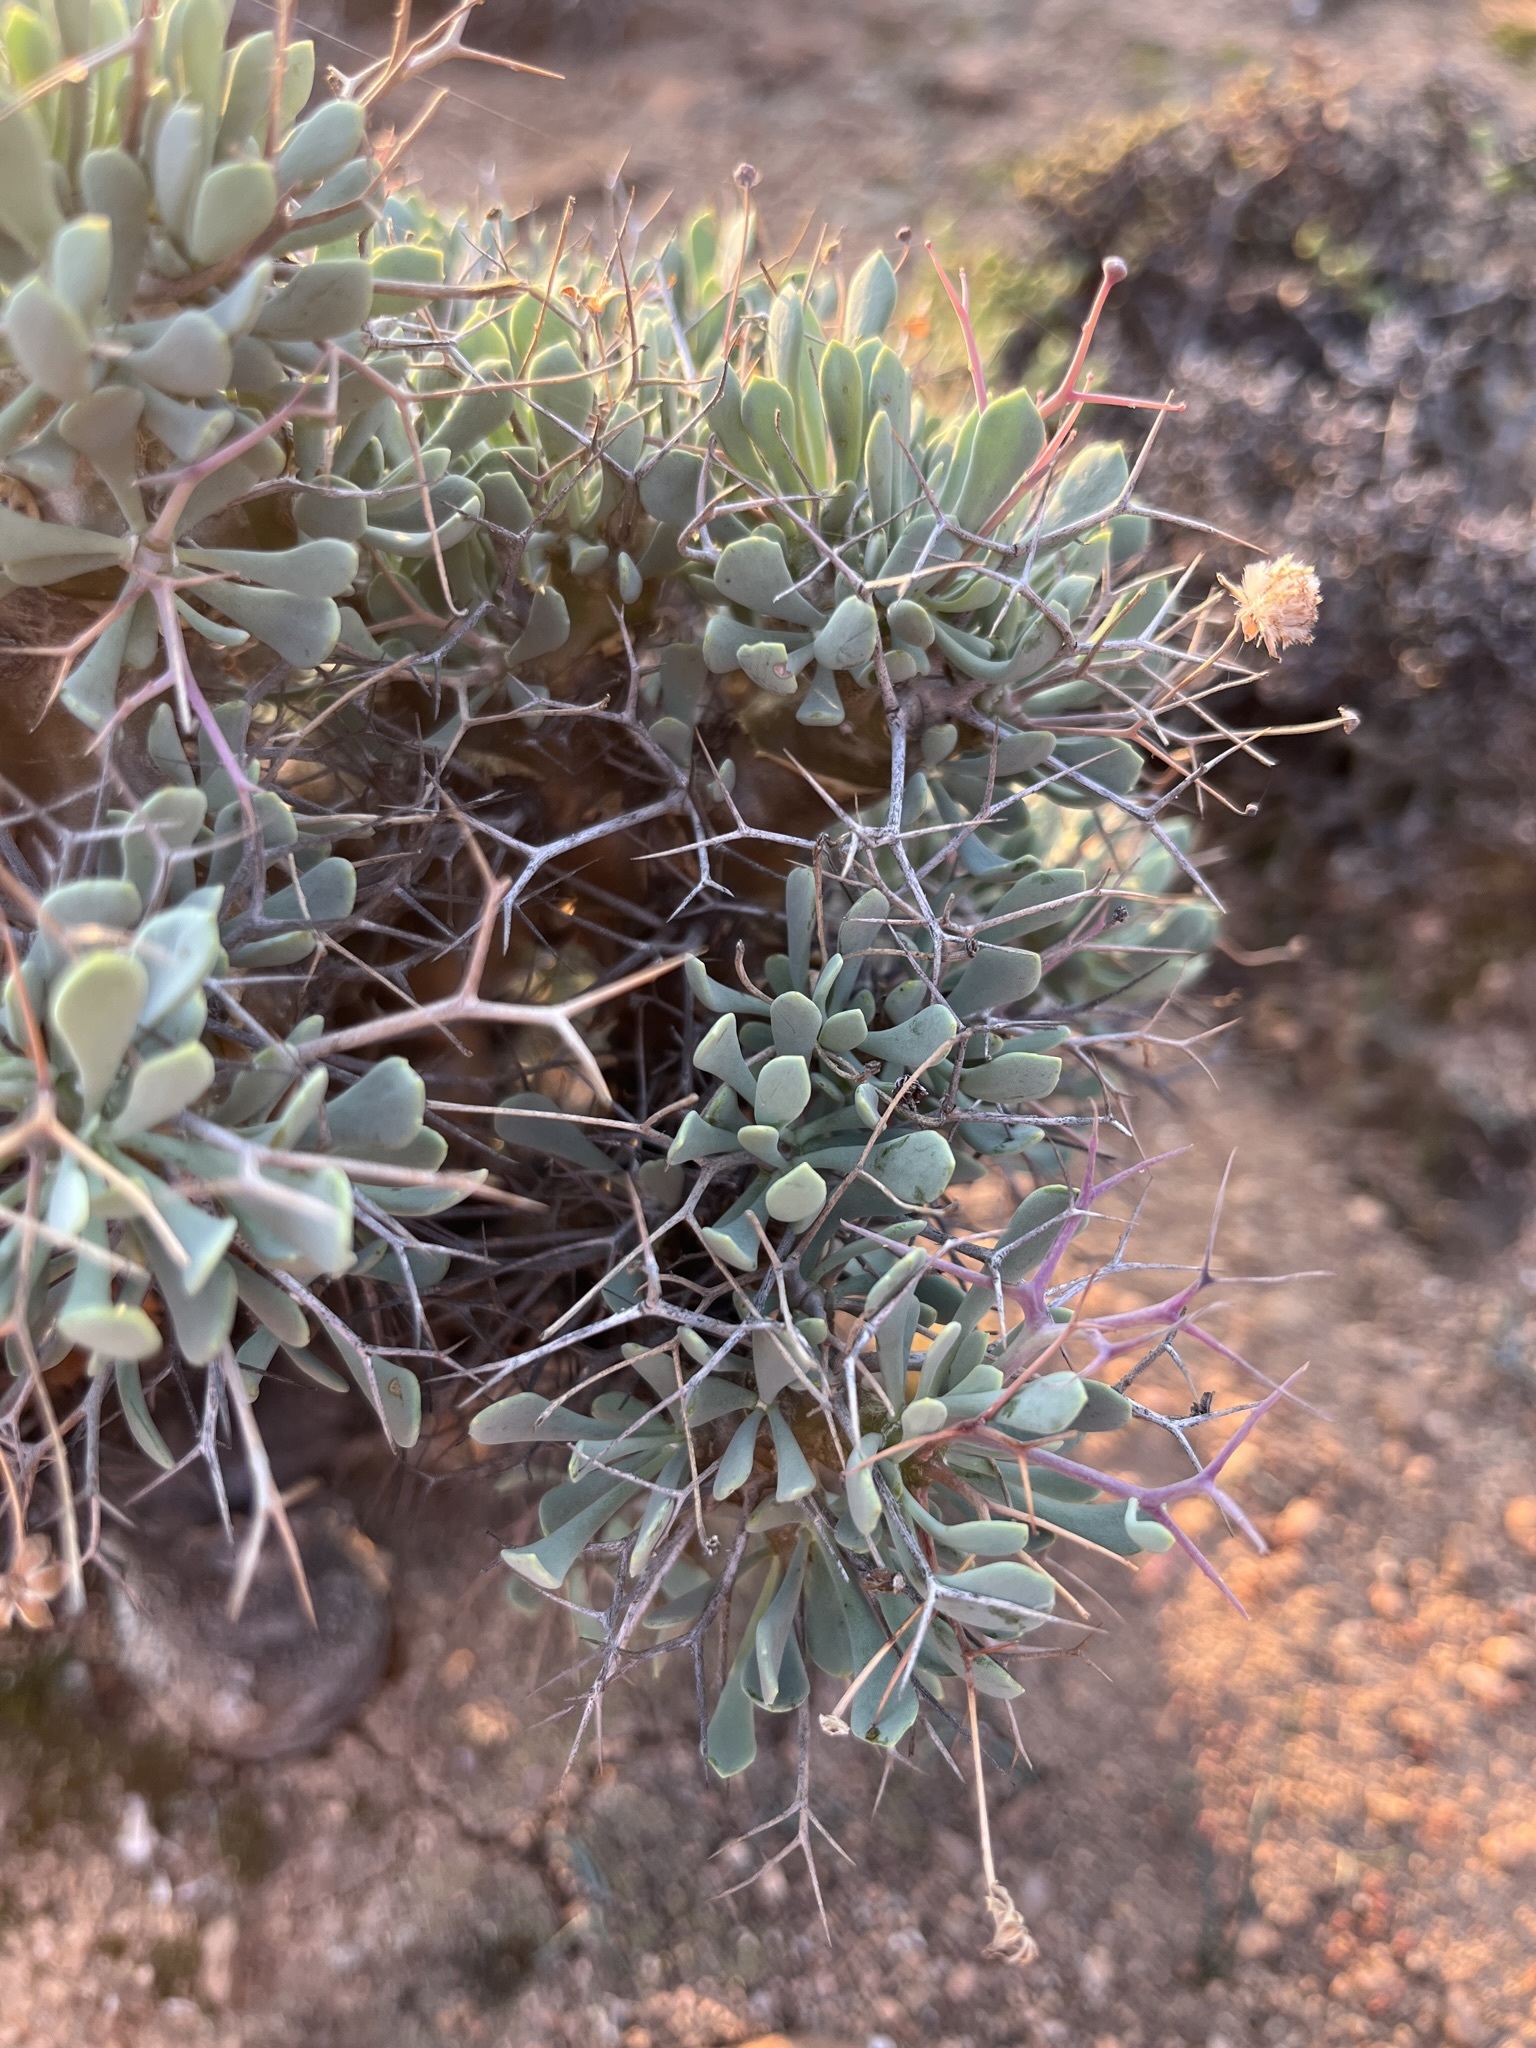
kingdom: Plantae
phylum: Tracheophyta
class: Magnoliopsida
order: Asterales
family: Asteraceae
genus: Othonna
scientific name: Othonna euphorbioides
